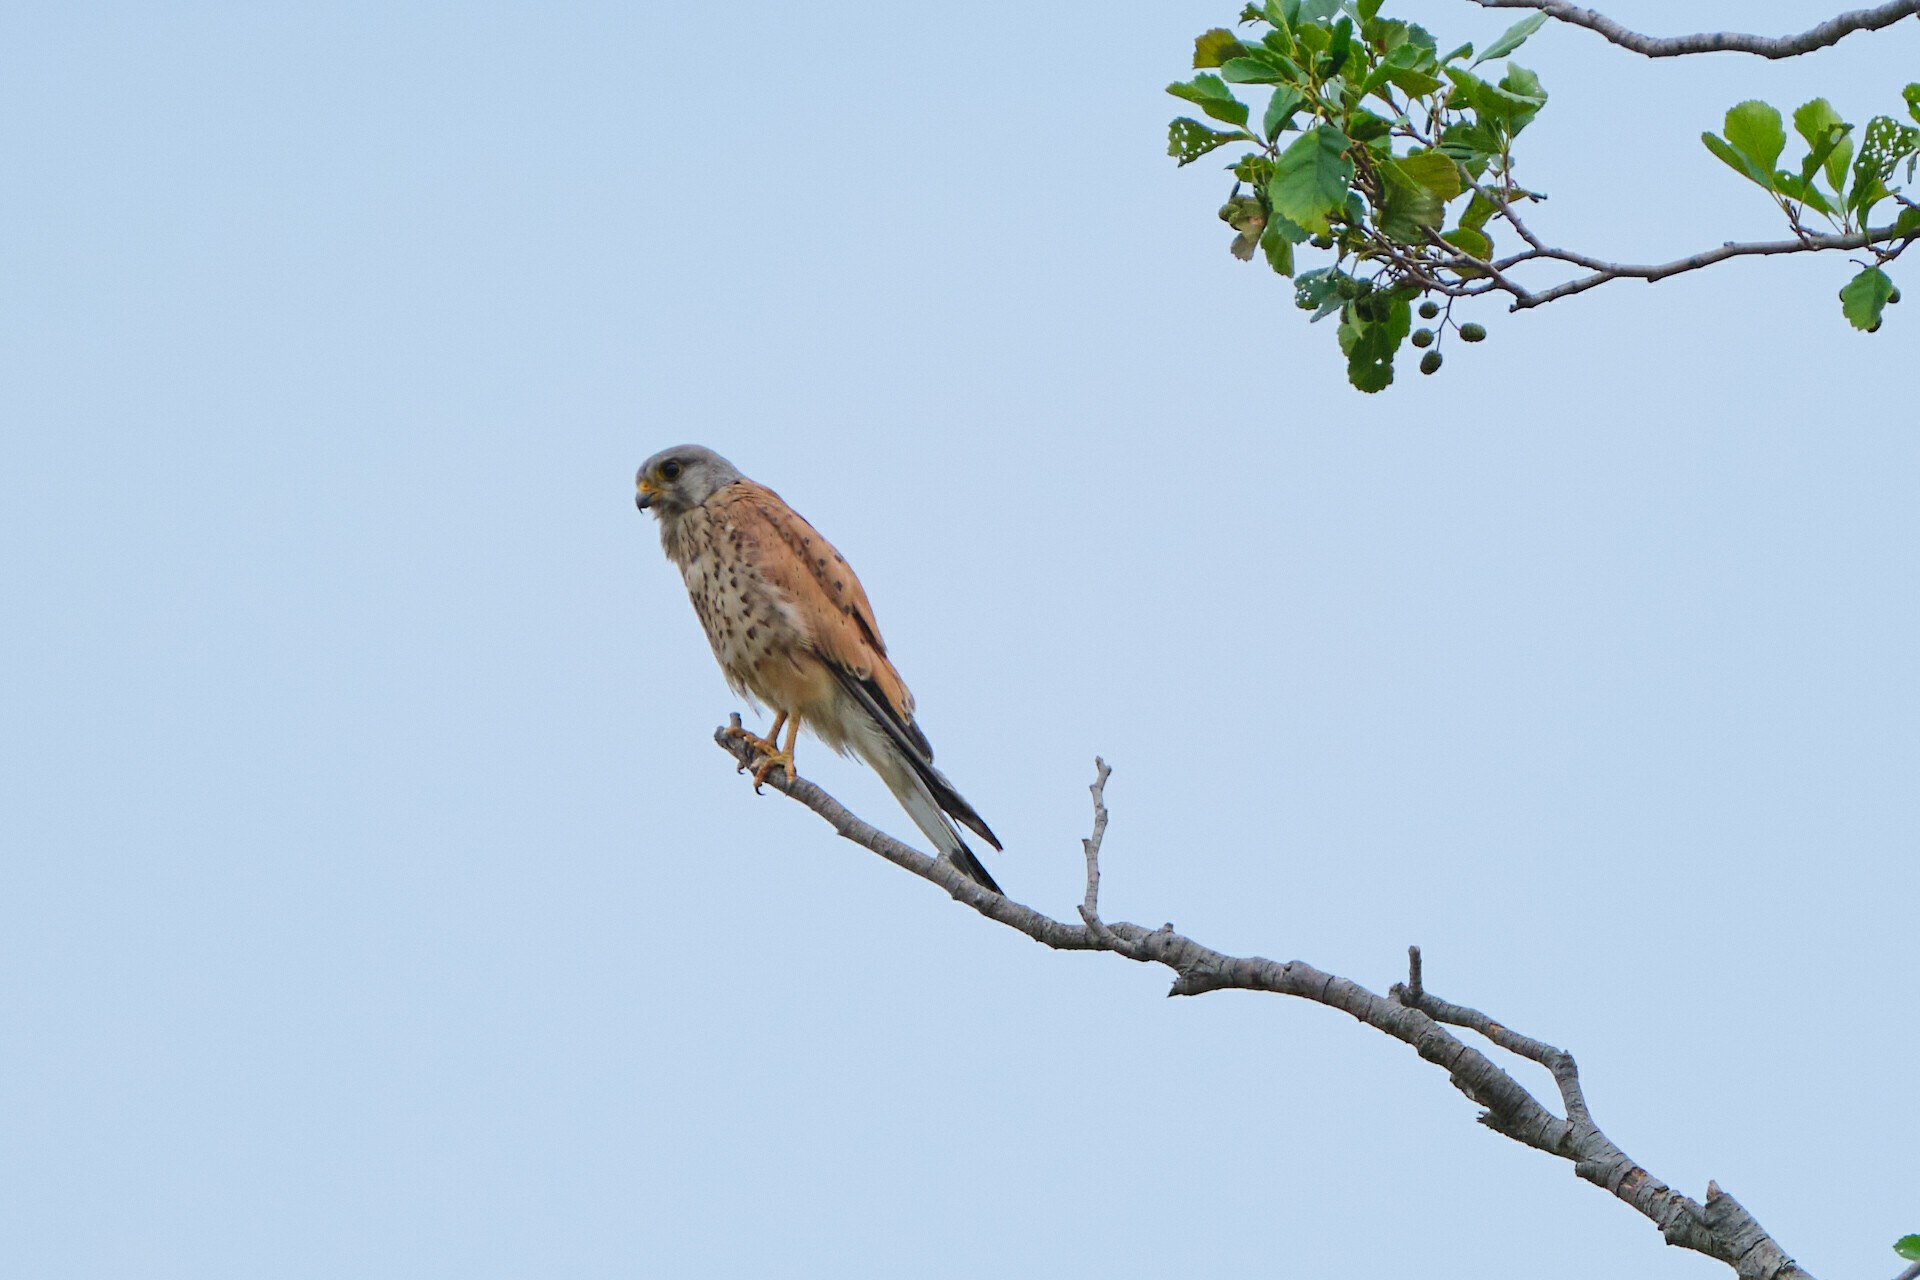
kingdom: Animalia
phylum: Chordata
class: Aves
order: Falconiformes
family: Falconidae
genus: Falco
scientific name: Falco tinnunculus
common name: Common kestrel
